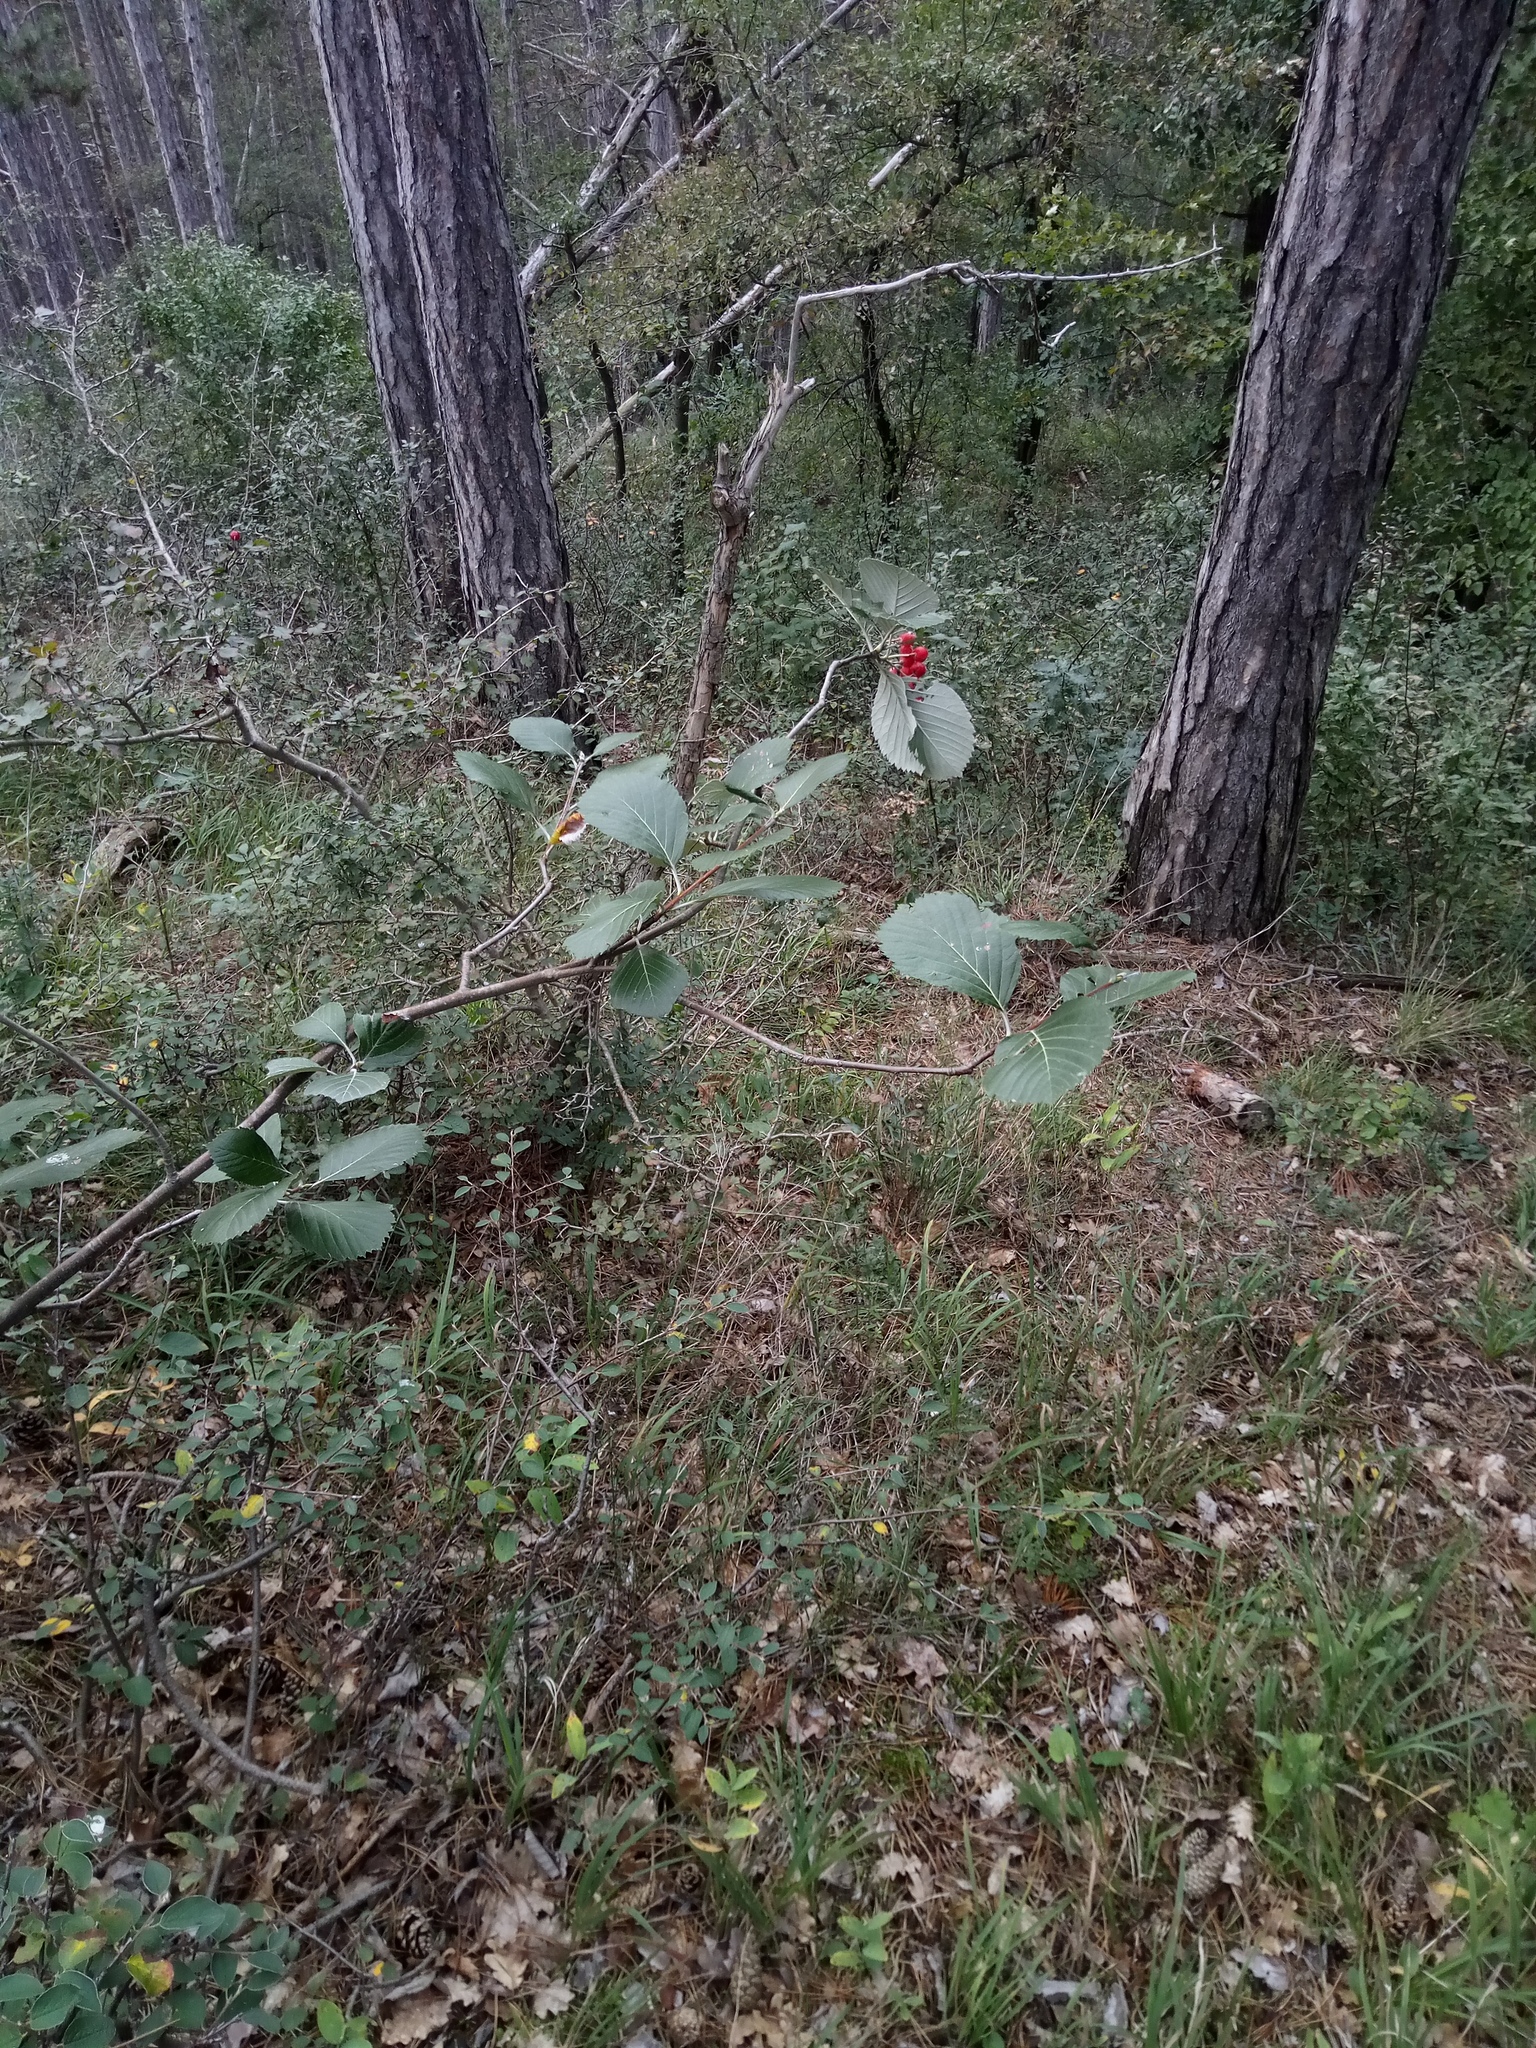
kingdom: Plantae
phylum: Tracheophyta
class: Magnoliopsida
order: Rosales
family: Rosaceae
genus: Aria
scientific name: Aria collina
